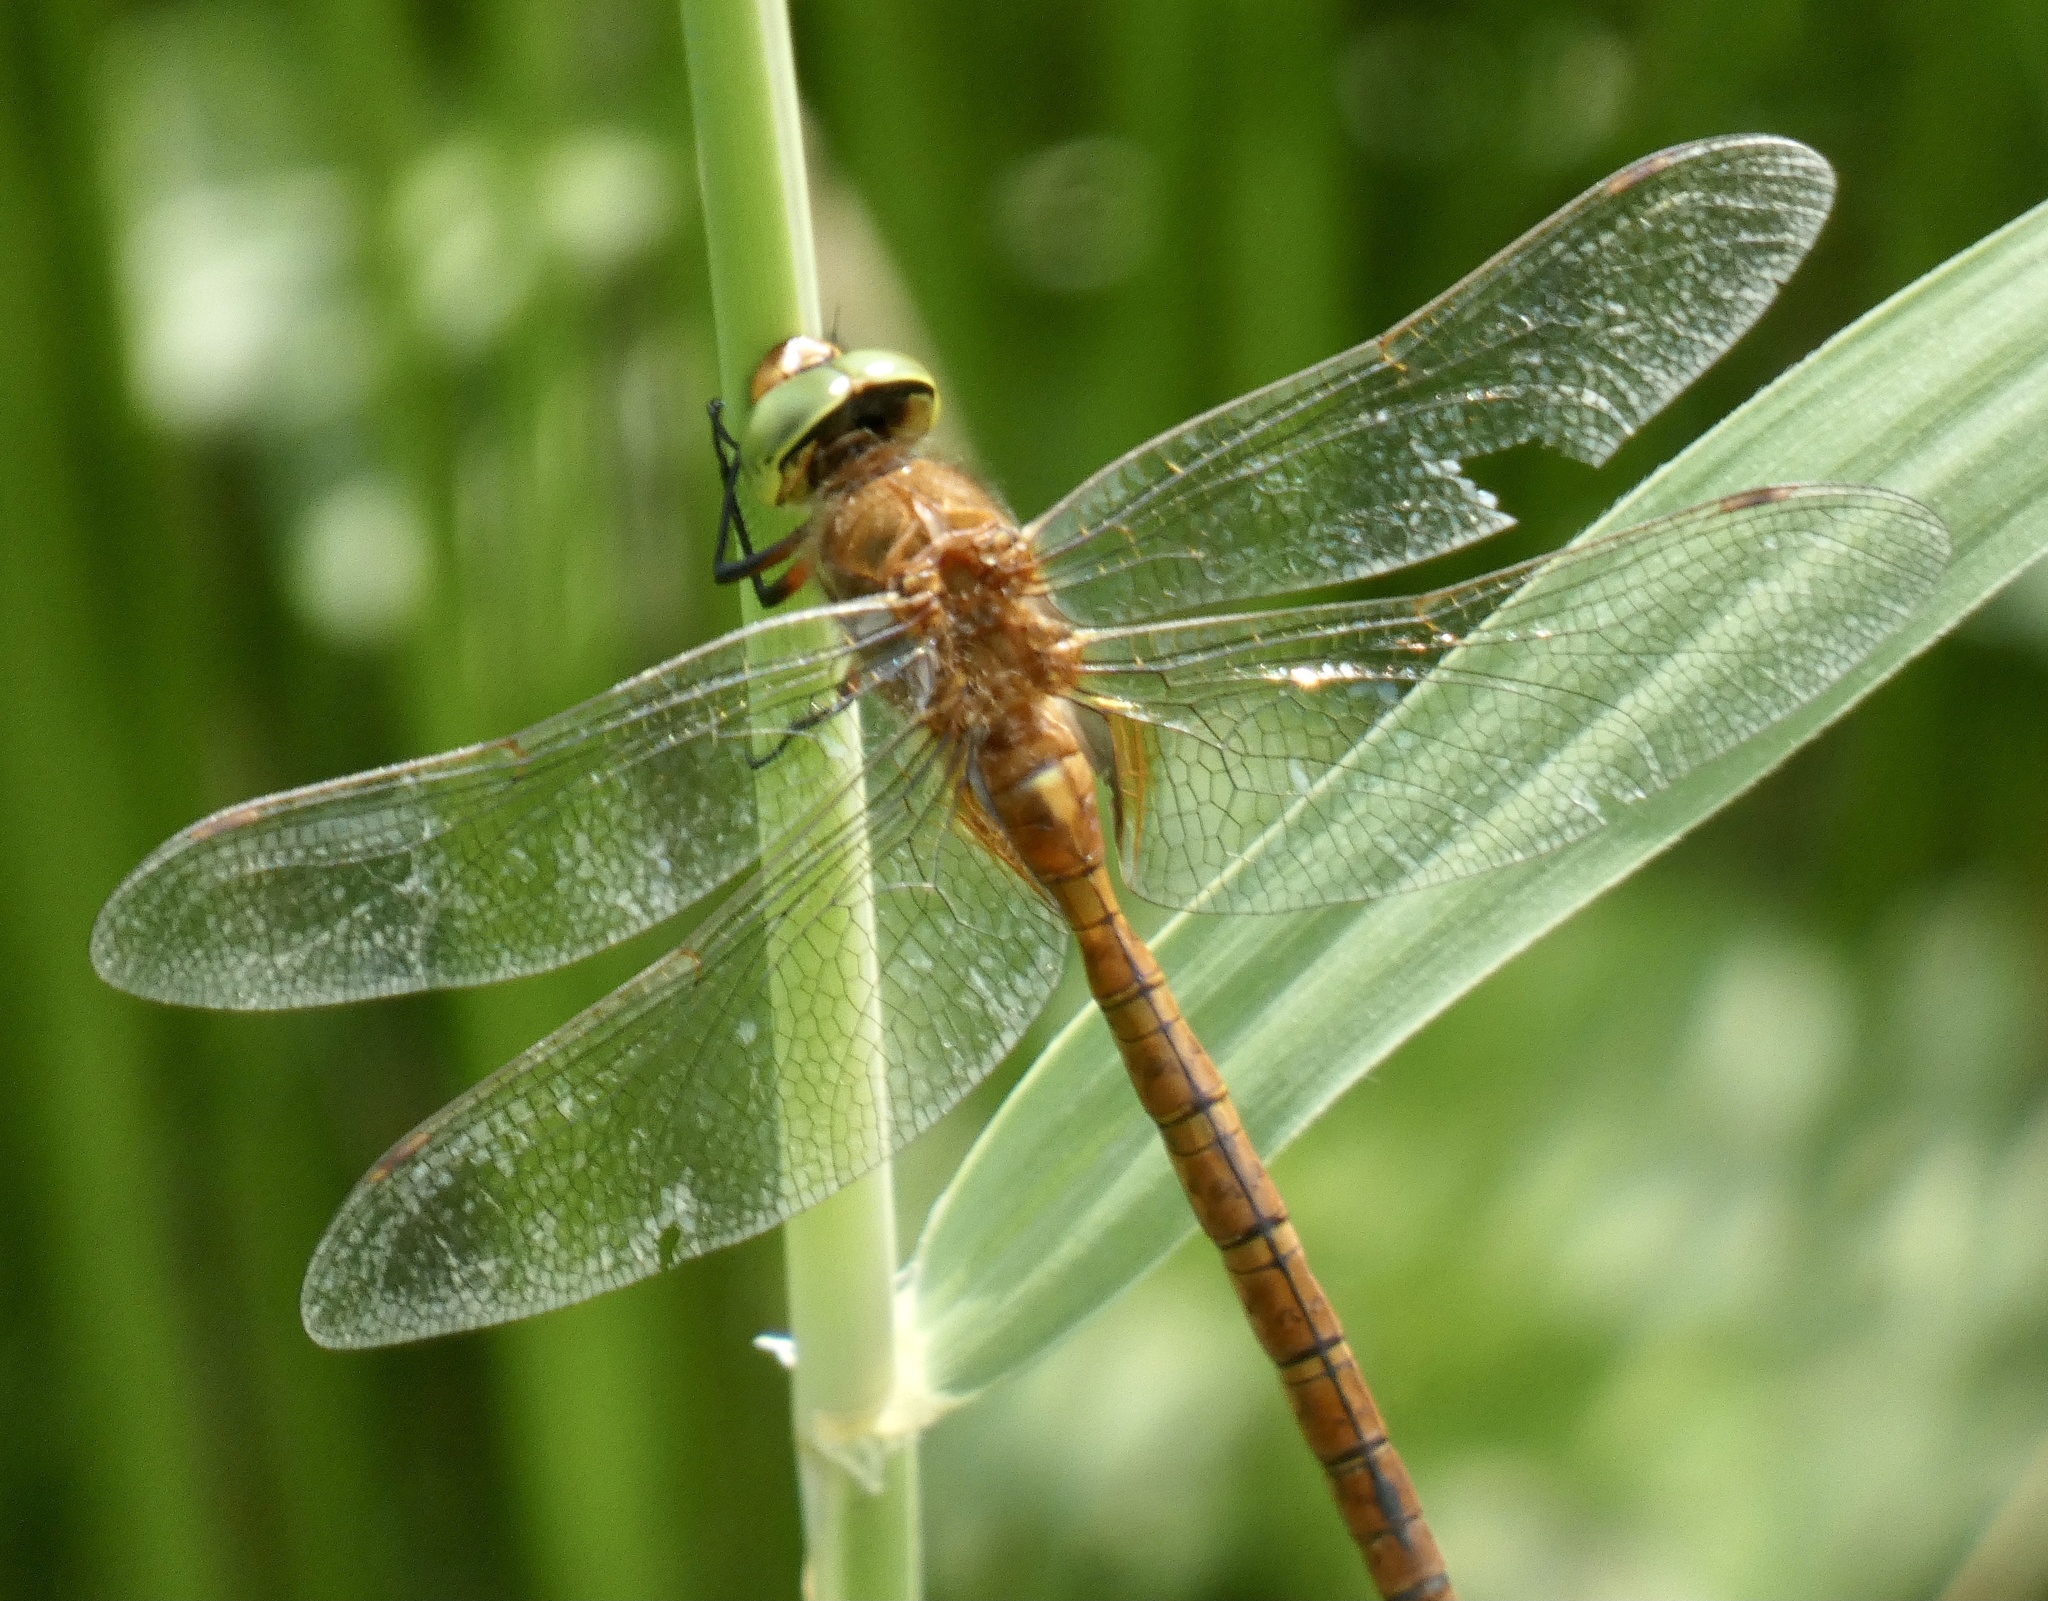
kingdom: Animalia
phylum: Arthropoda
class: Insecta
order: Odonata
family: Aeshnidae
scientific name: Aeshnidae
